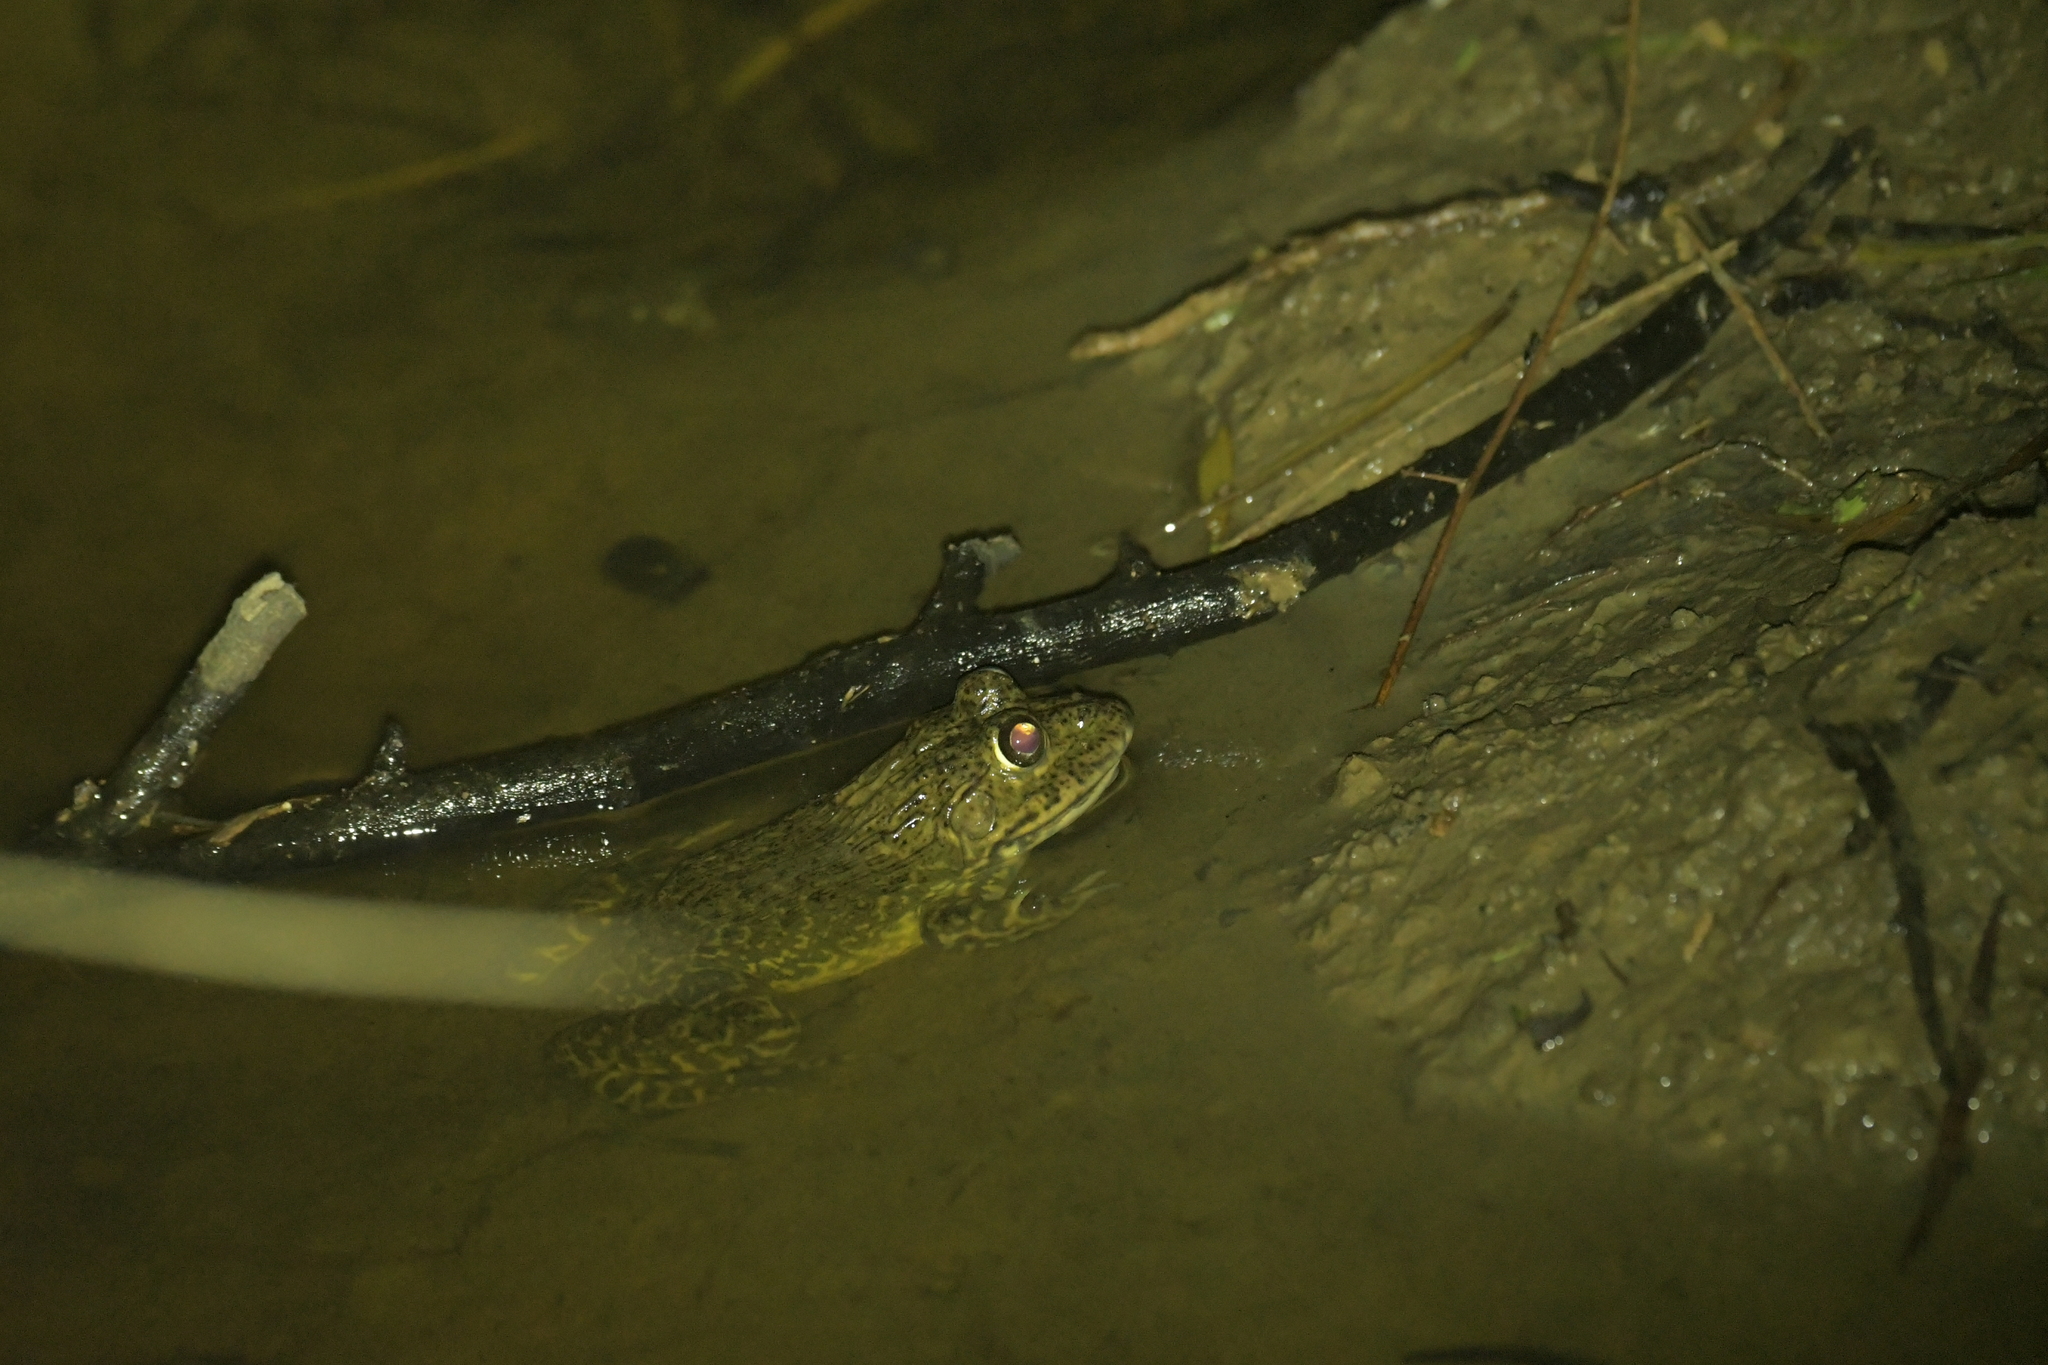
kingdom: Animalia
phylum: Chordata
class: Amphibia
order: Anura
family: Dicroglossidae
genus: Hoplobatrachus
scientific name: Hoplobatrachus rugulosus
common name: Chinese edible frog
